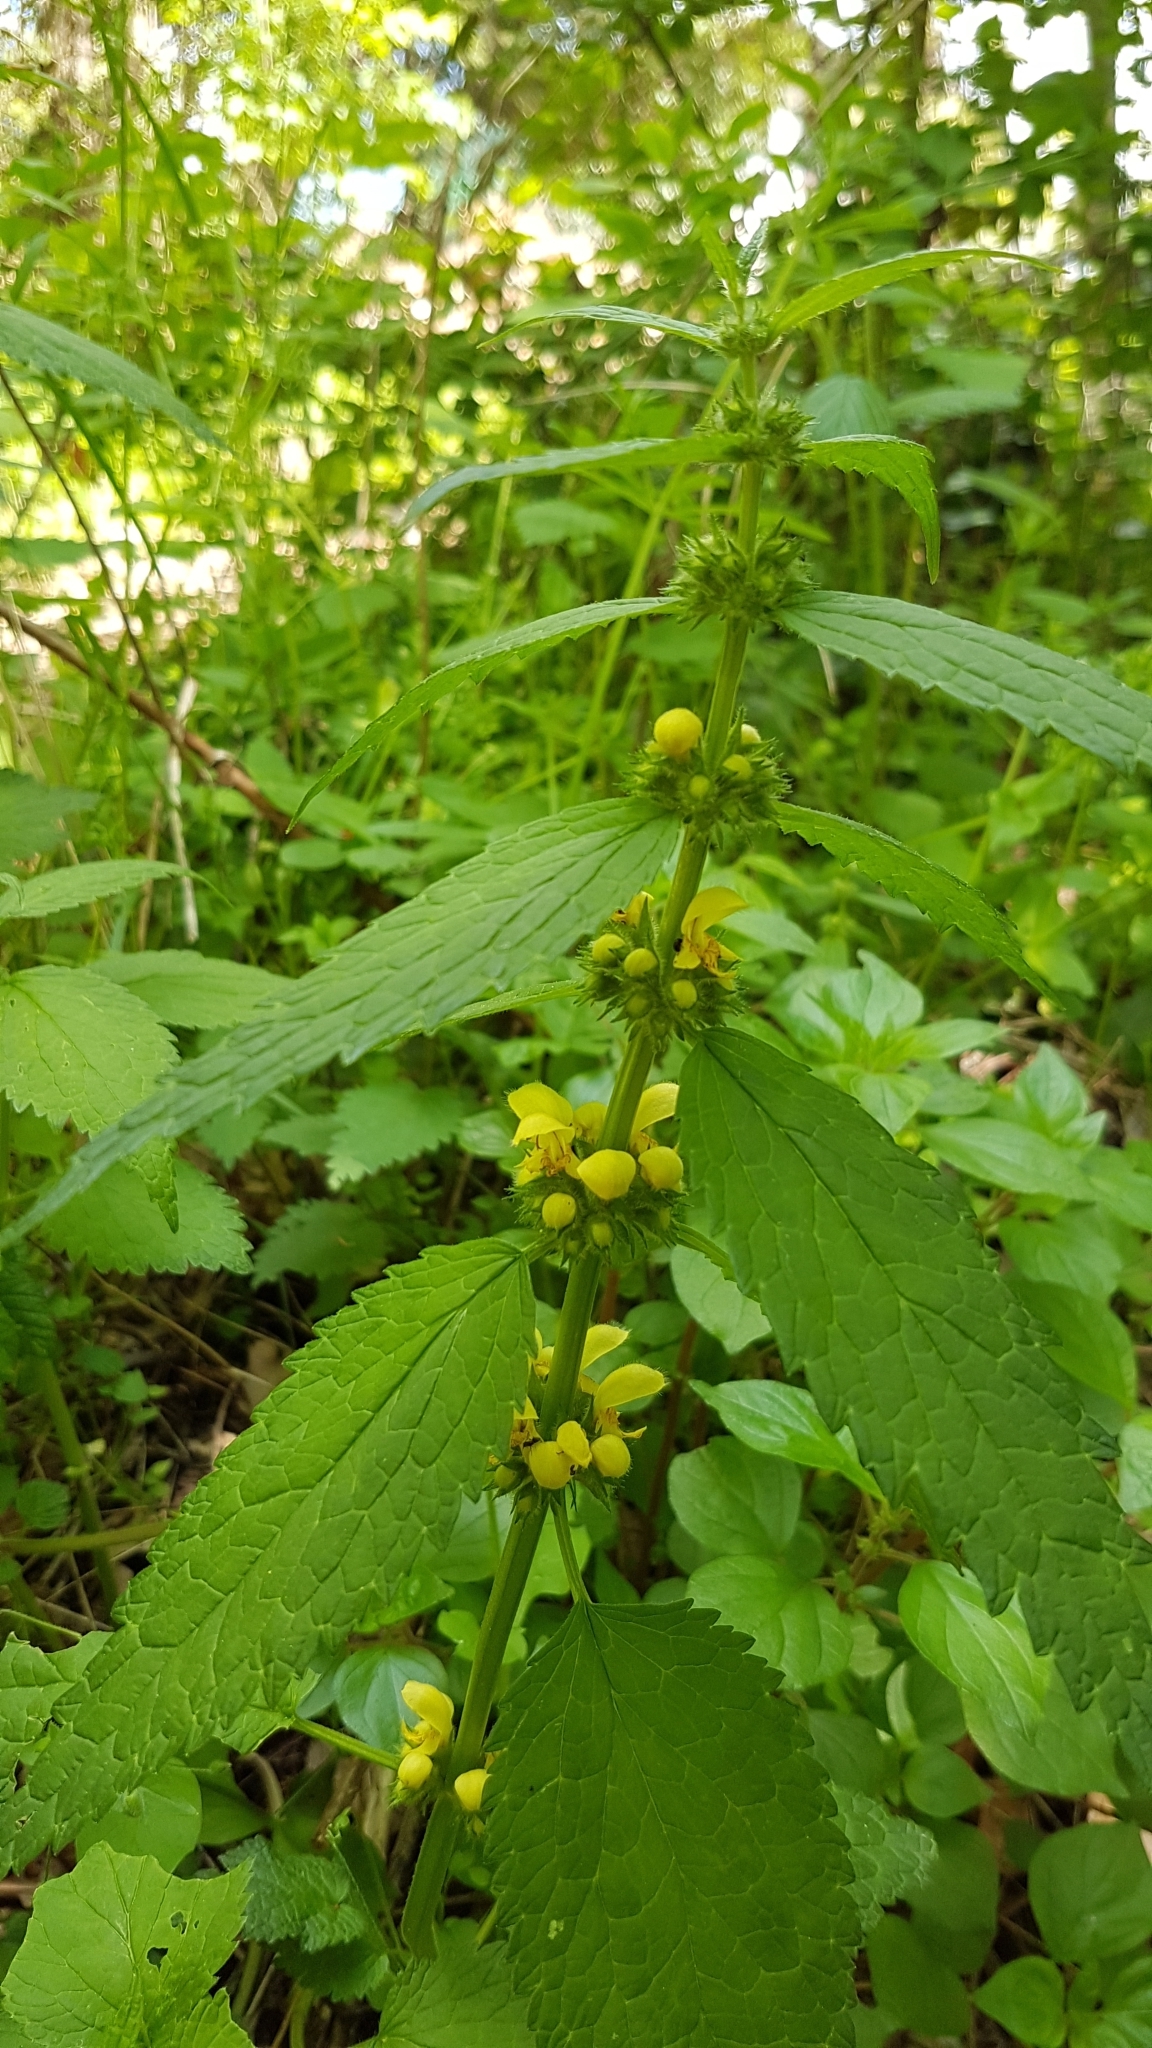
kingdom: Plantae
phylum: Tracheophyta
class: Magnoliopsida
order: Lamiales
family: Lamiaceae
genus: Lamium
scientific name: Lamium galeobdolon
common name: Yellow archangel
